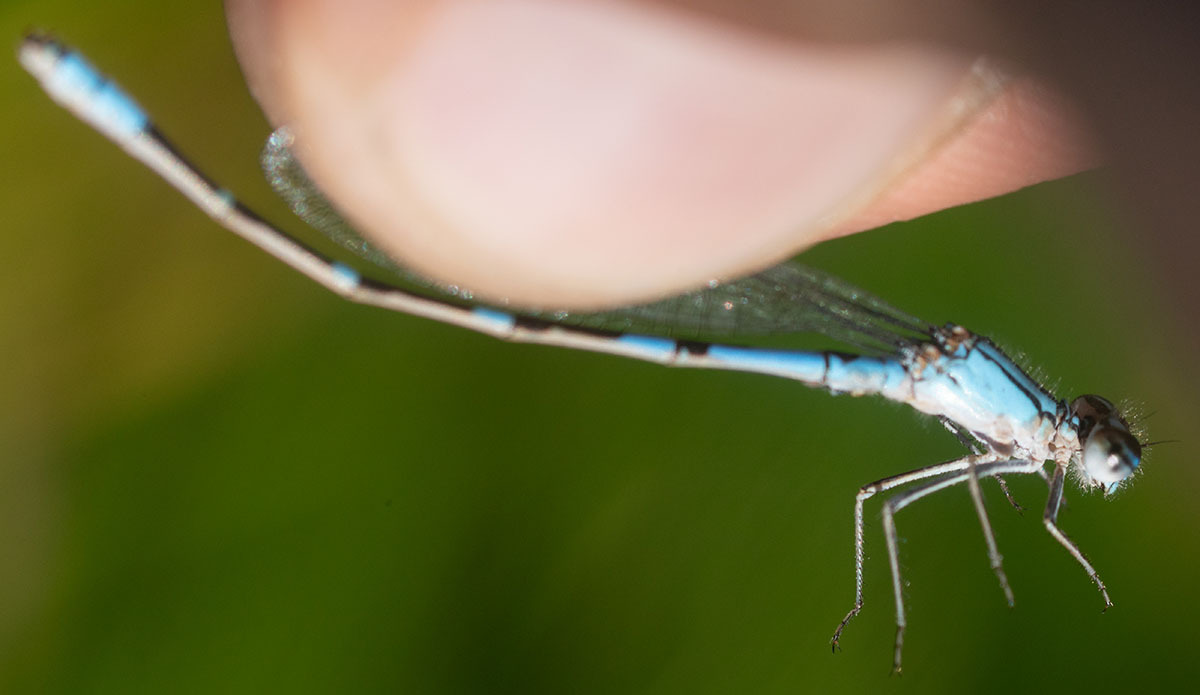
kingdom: Animalia
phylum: Arthropoda
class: Insecta
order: Odonata
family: Coenagrionidae
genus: Enallagma
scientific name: Enallagma praevarum
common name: Arroyo bluet
